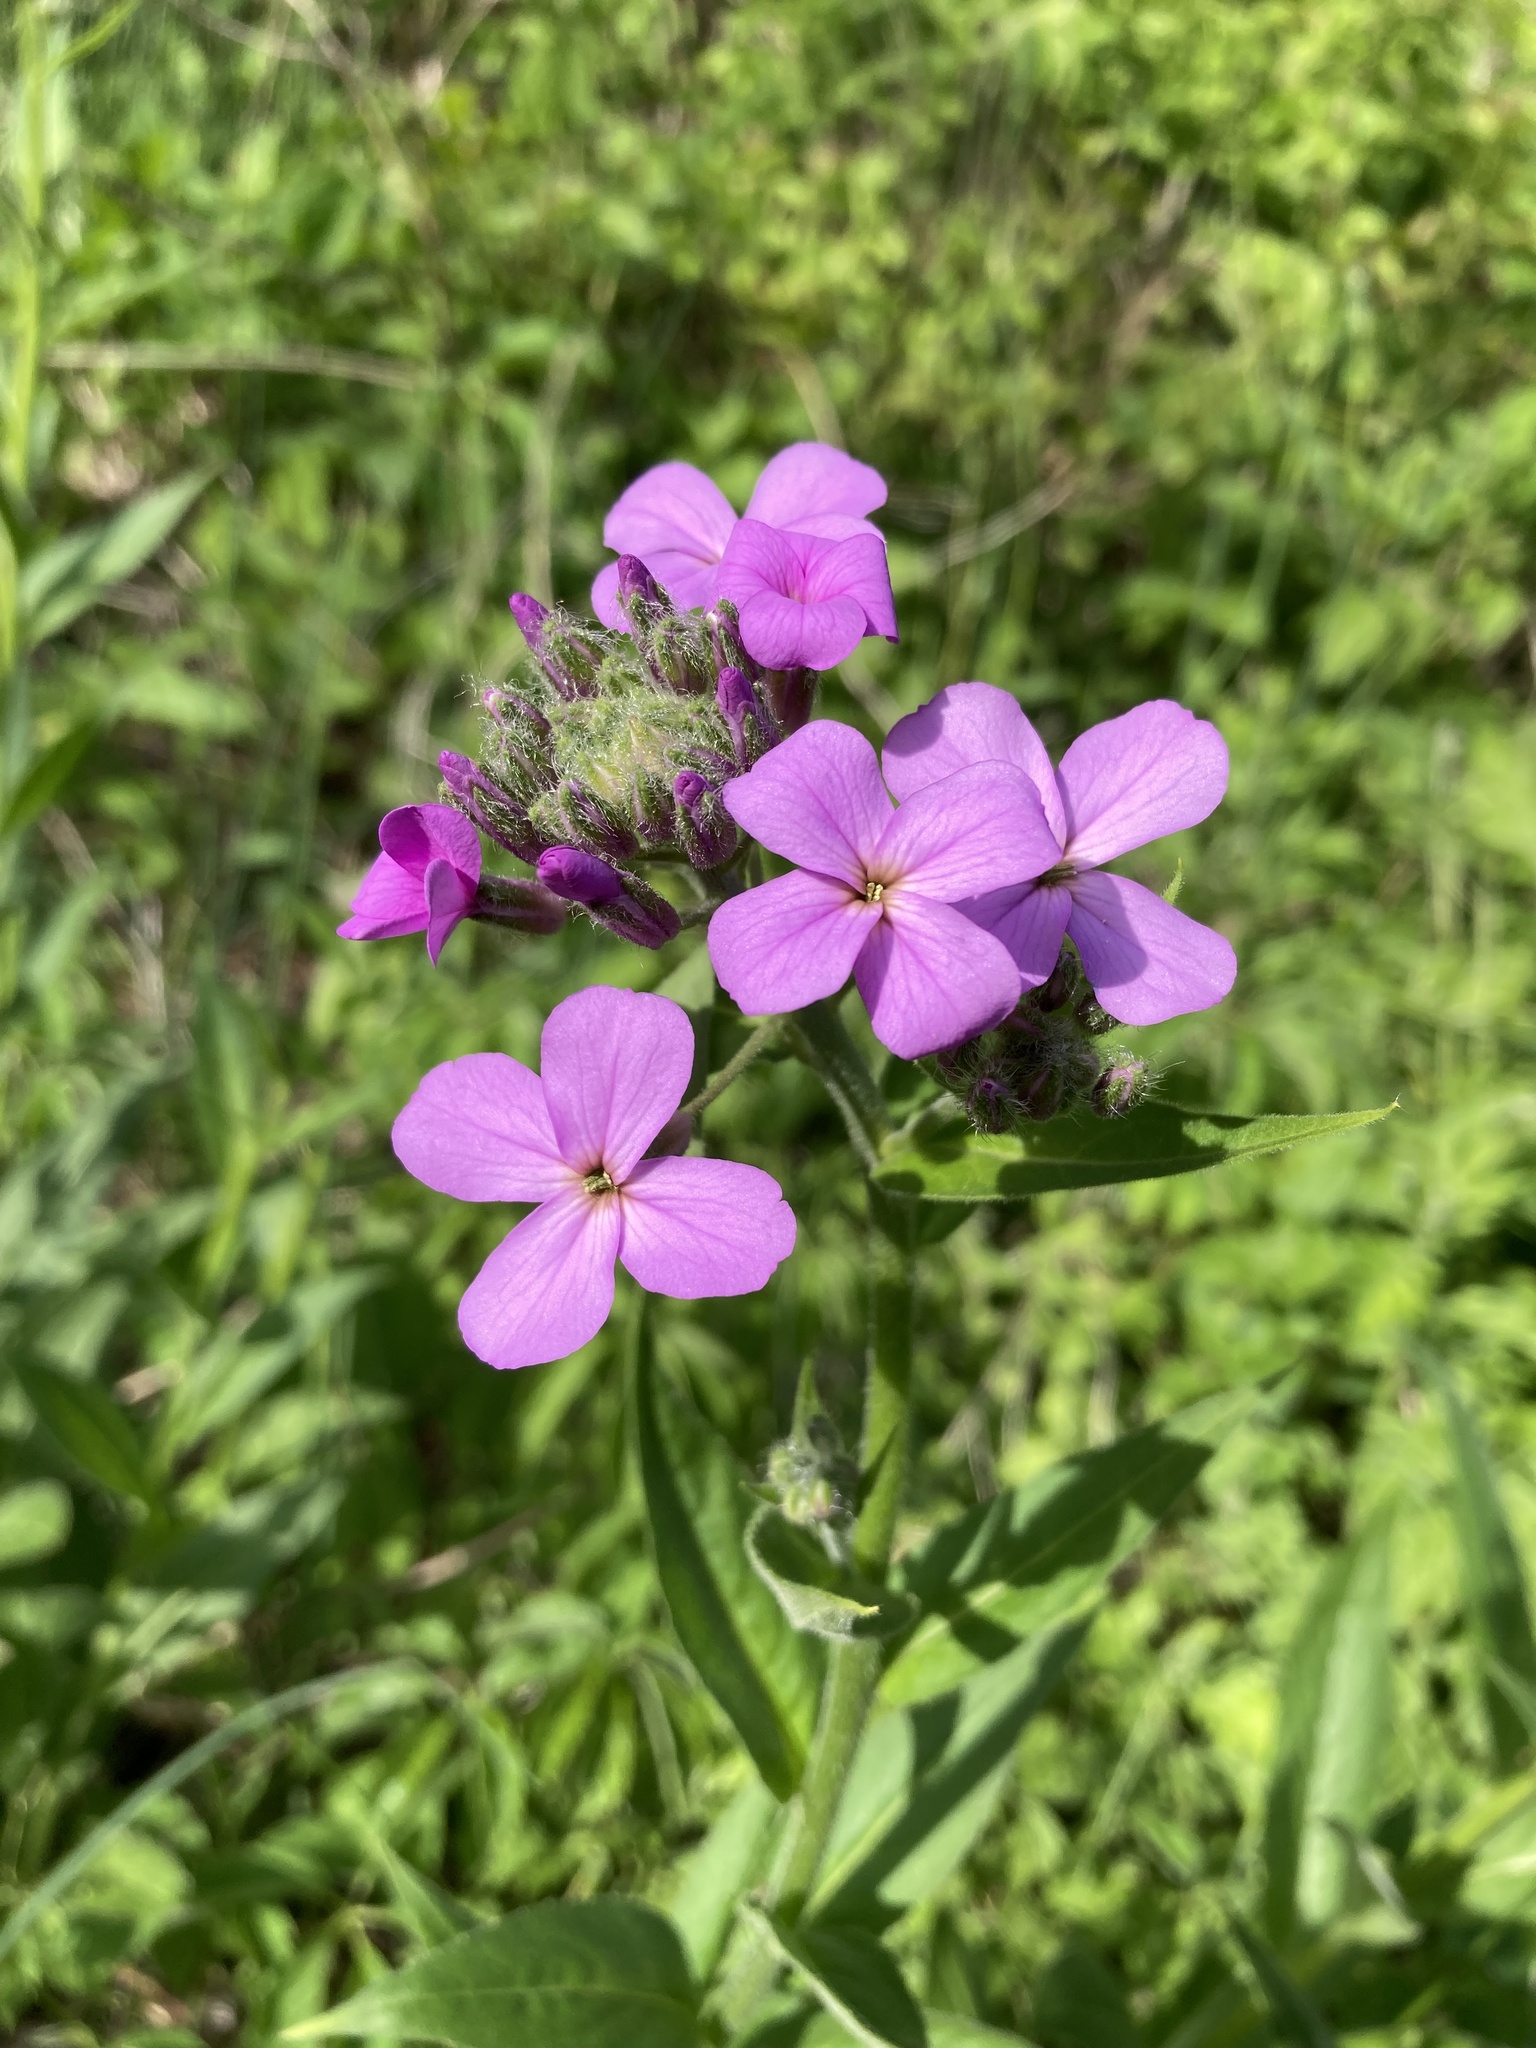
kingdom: Plantae
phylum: Tracheophyta
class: Magnoliopsida
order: Brassicales
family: Brassicaceae
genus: Hesperis
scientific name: Hesperis matronalis
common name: Dame's-violet
